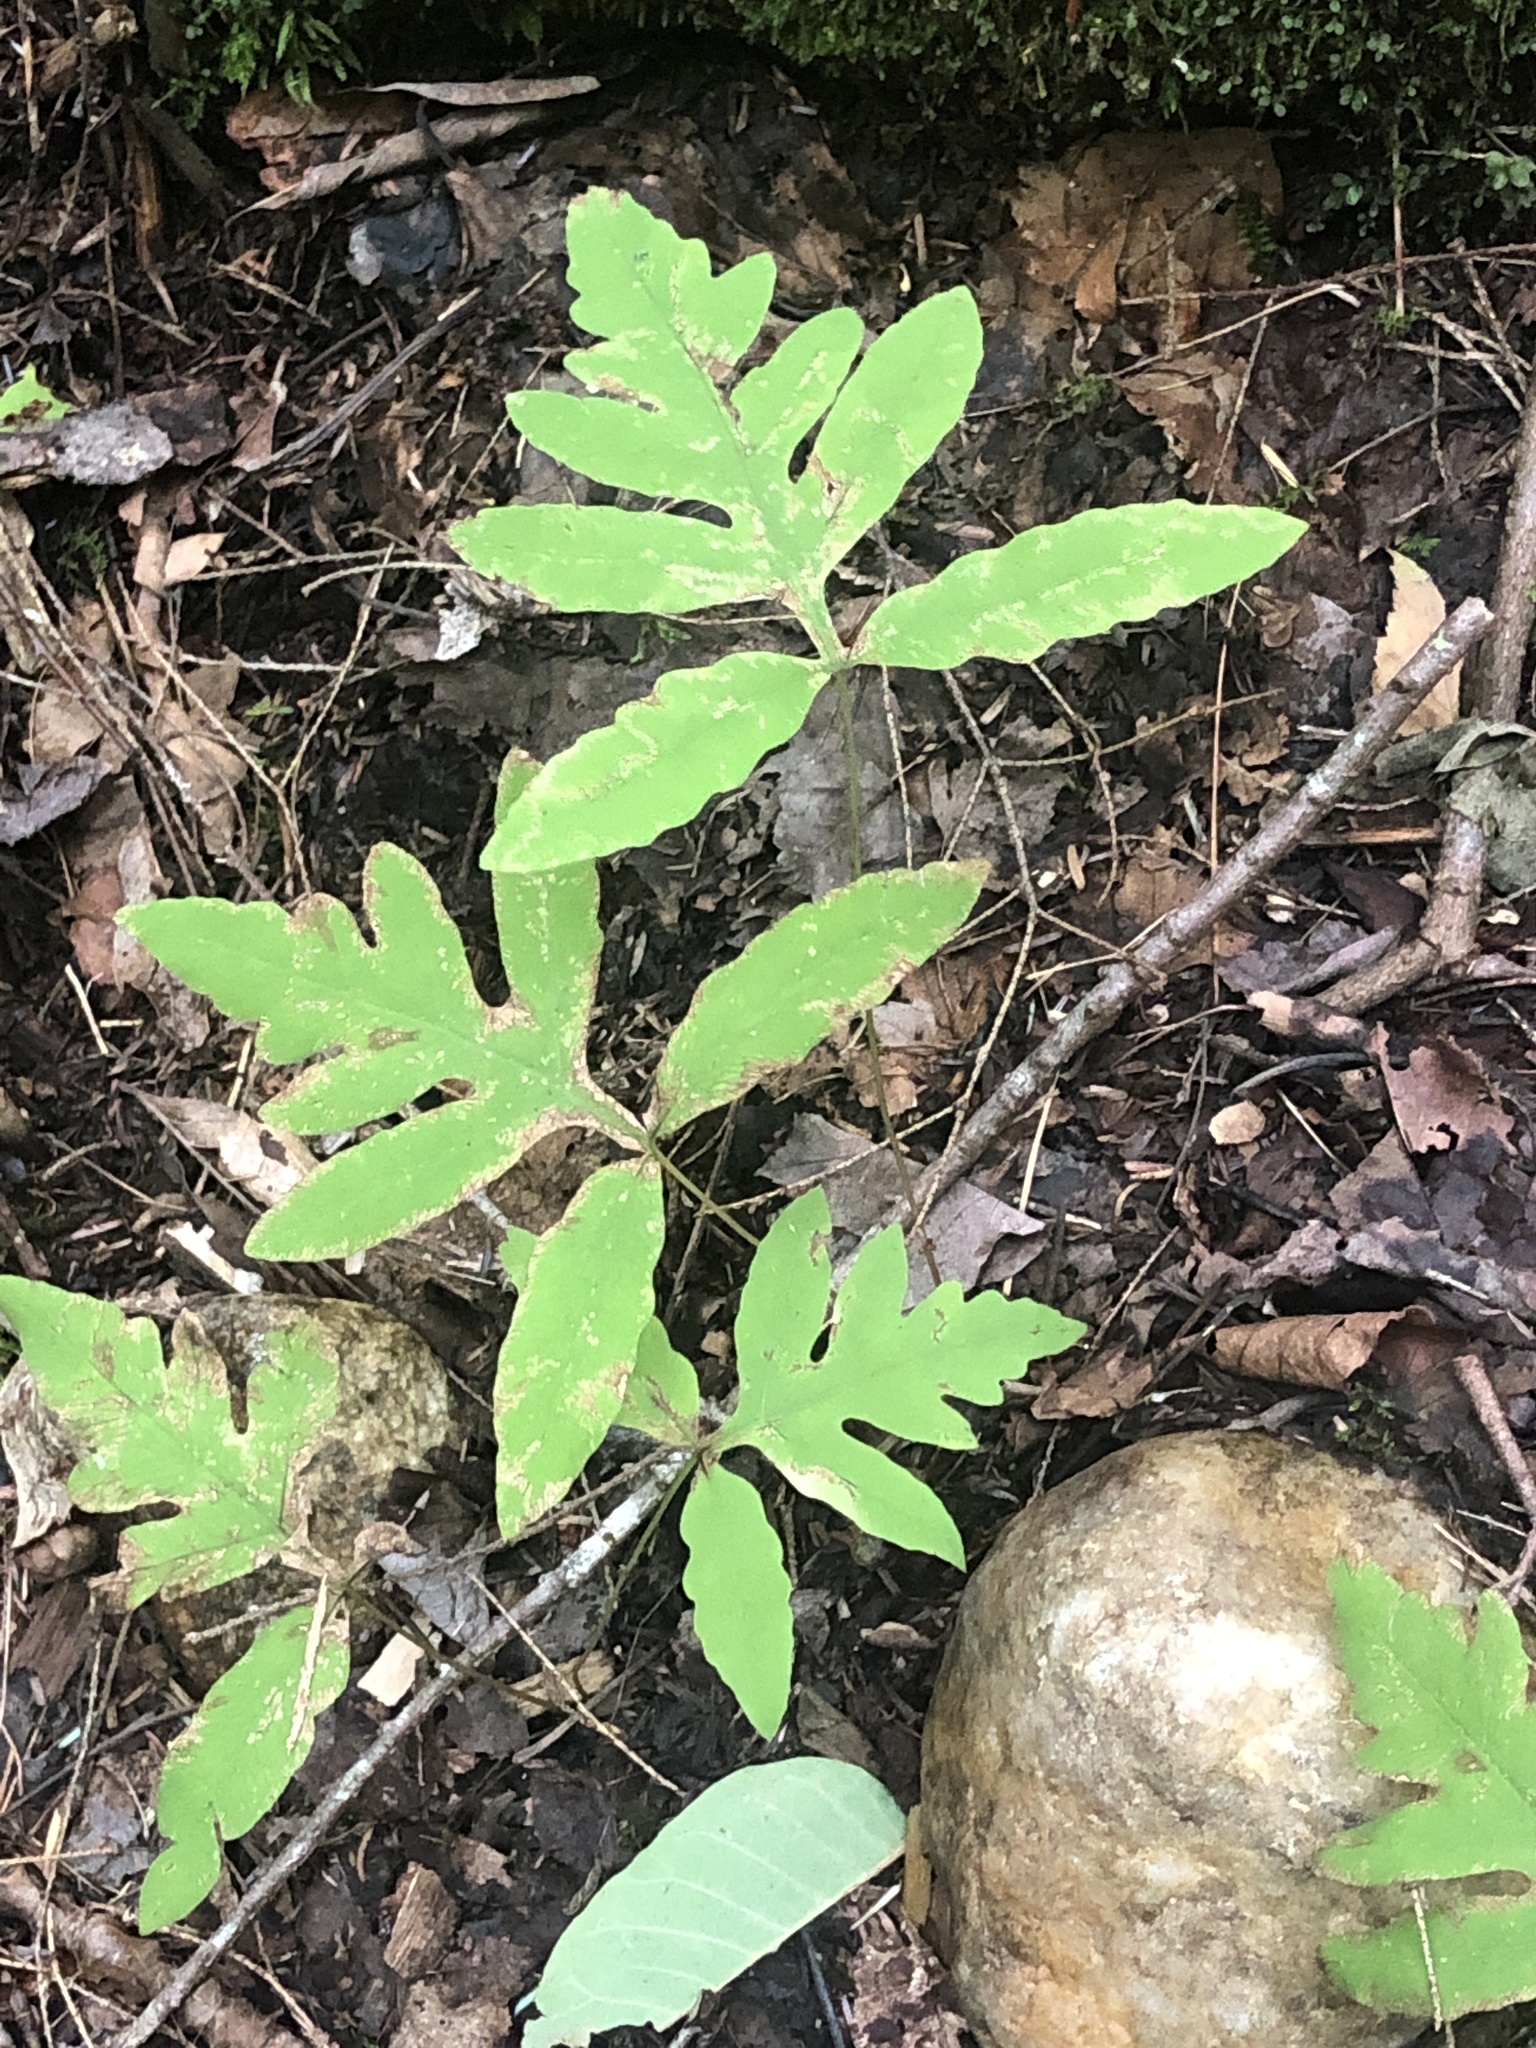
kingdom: Plantae
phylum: Tracheophyta
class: Polypodiopsida
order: Polypodiales
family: Onocleaceae
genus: Onoclea
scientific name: Onoclea sensibilis
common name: Sensitive fern
